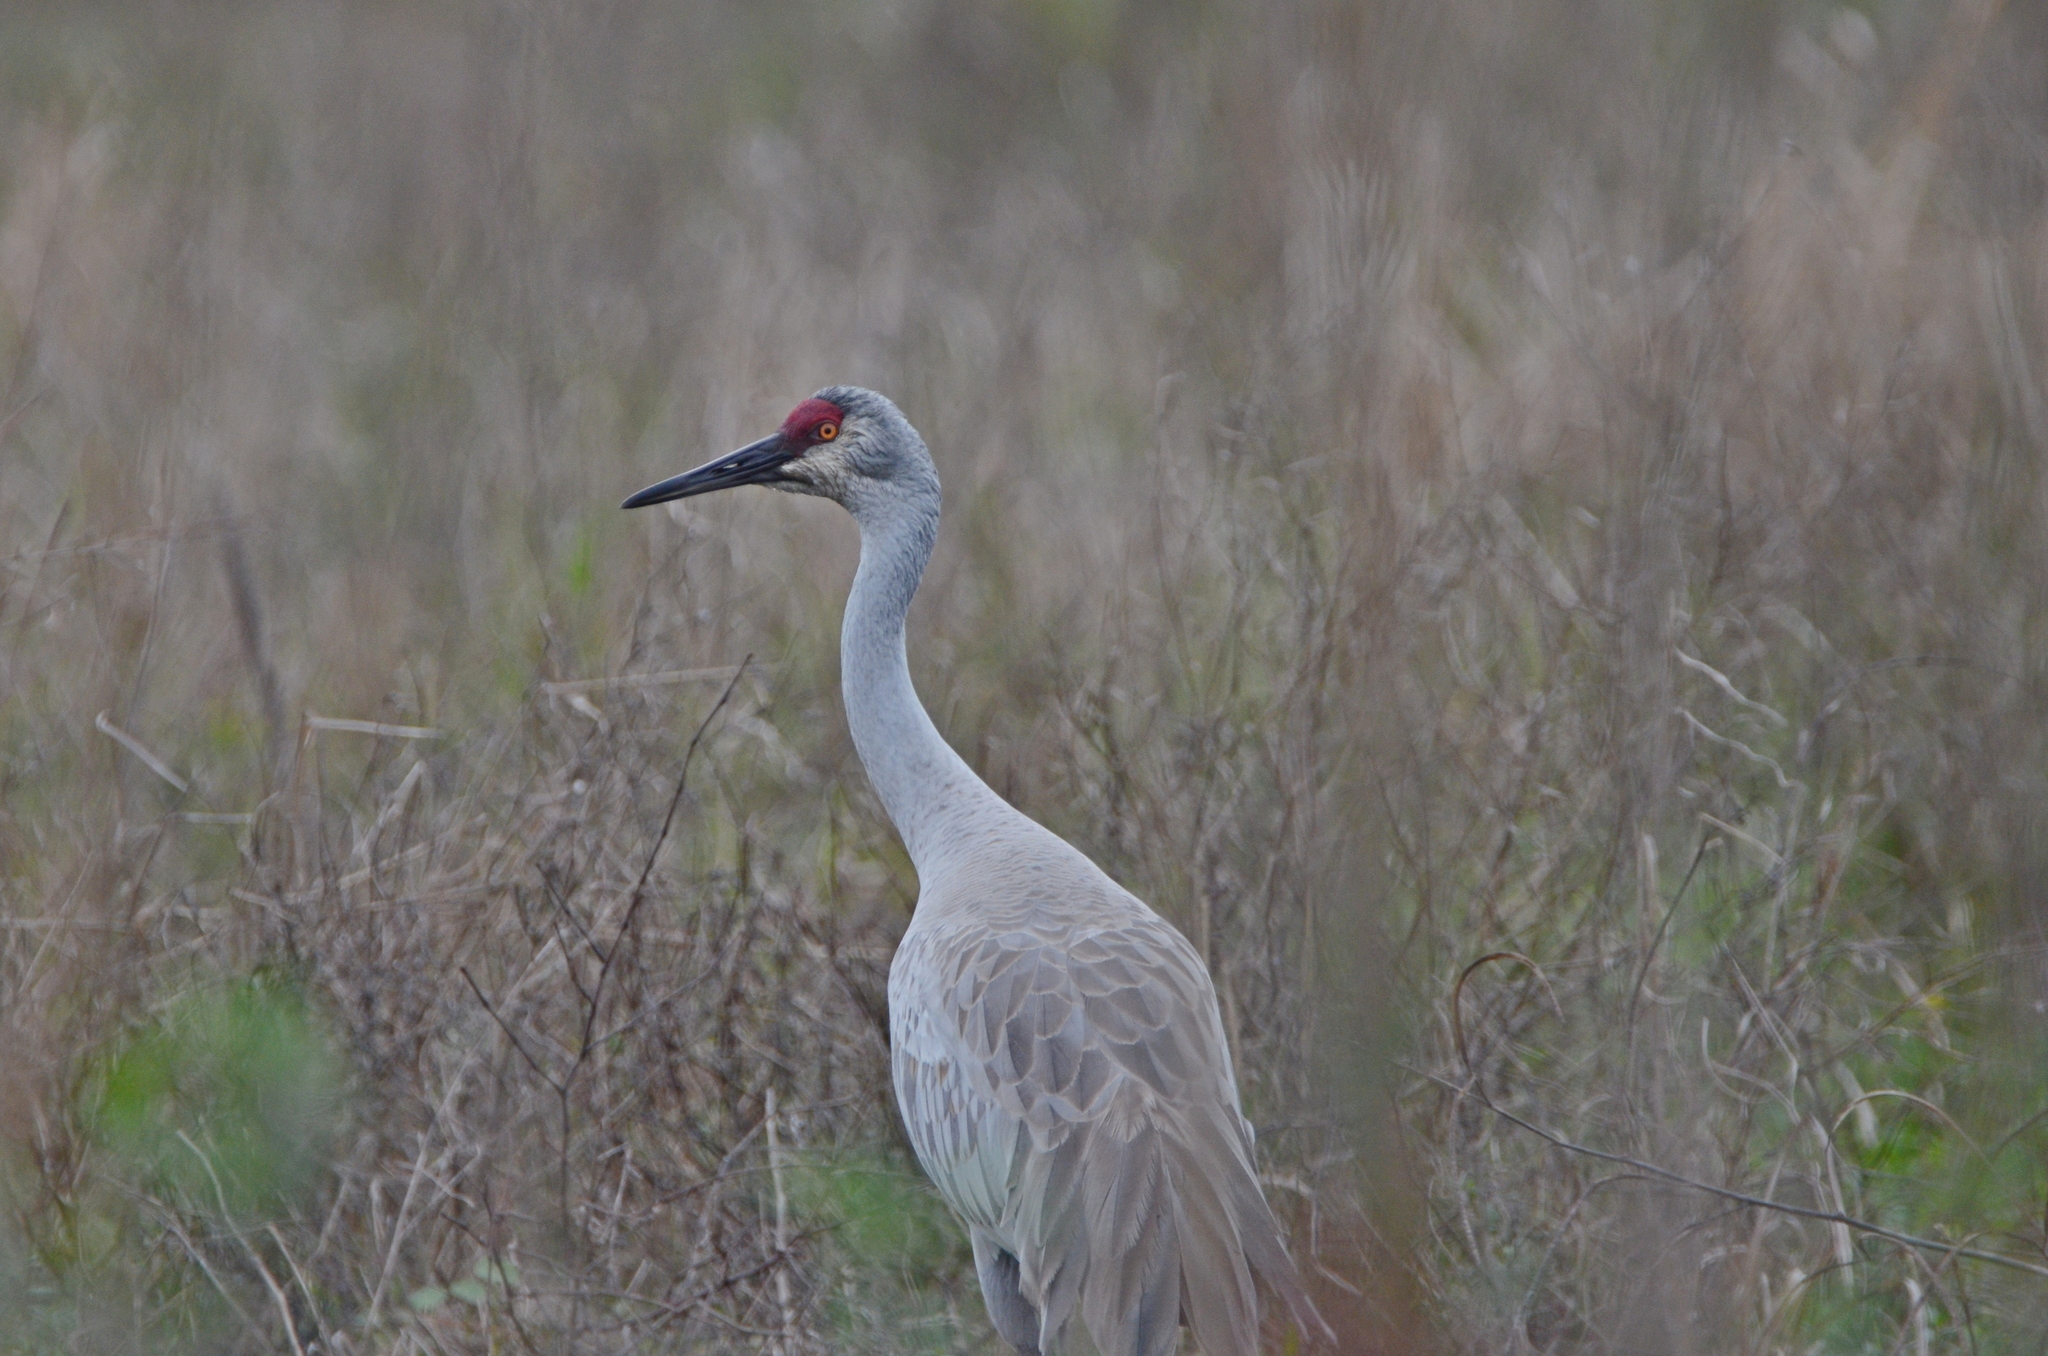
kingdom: Animalia
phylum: Chordata
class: Aves
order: Gruiformes
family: Gruidae
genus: Grus
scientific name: Grus canadensis
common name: Sandhill crane
